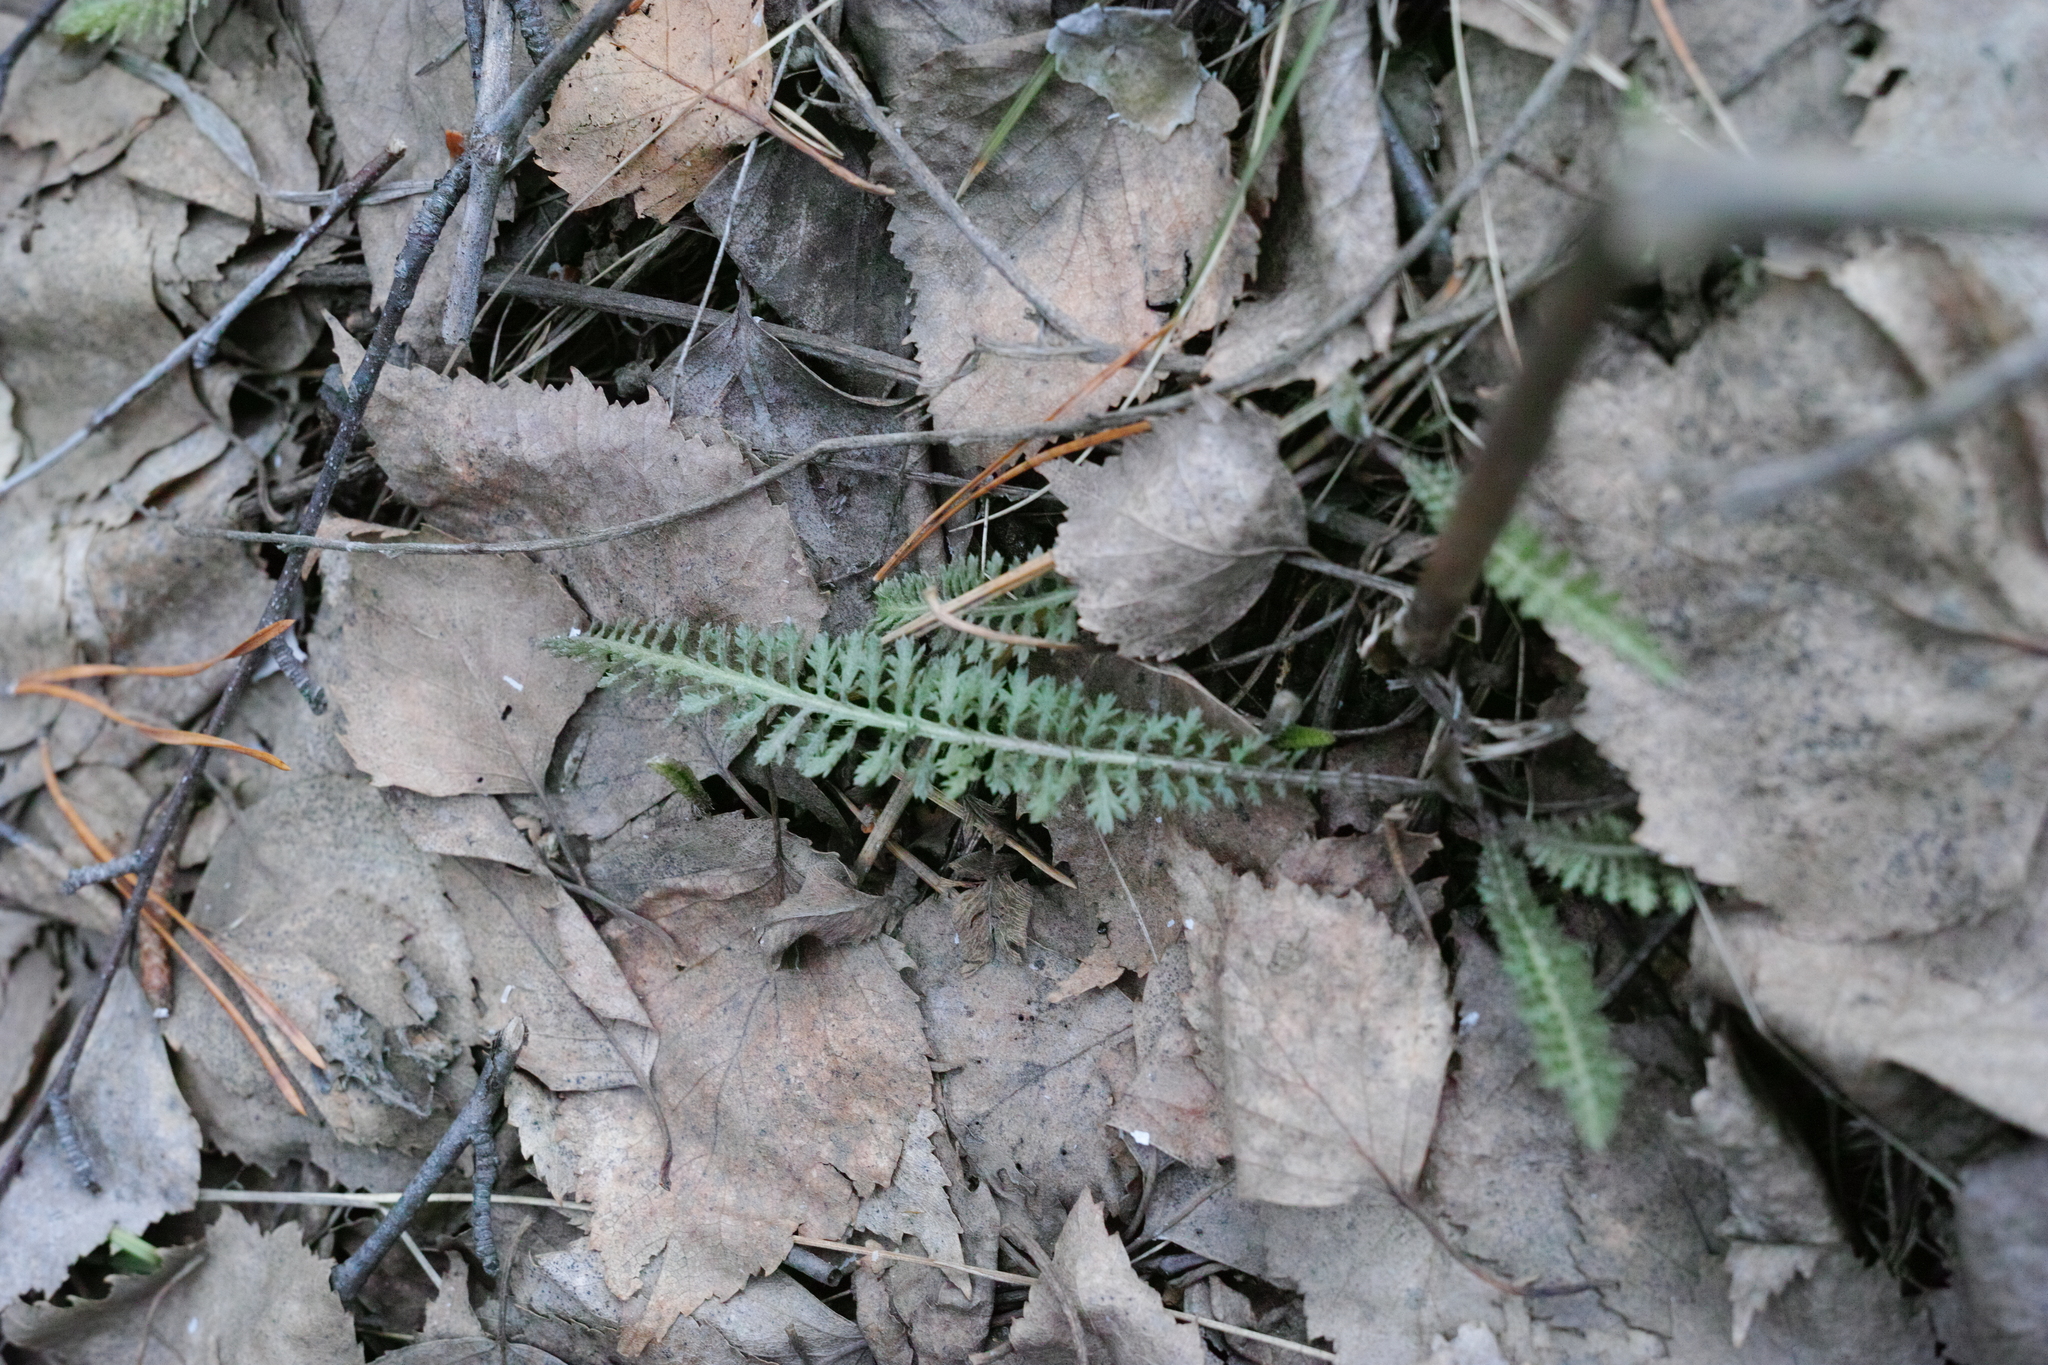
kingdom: Plantae
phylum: Tracheophyta
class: Magnoliopsida
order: Asterales
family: Asteraceae
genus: Achillea
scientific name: Achillea millefolium
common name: Yarrow
